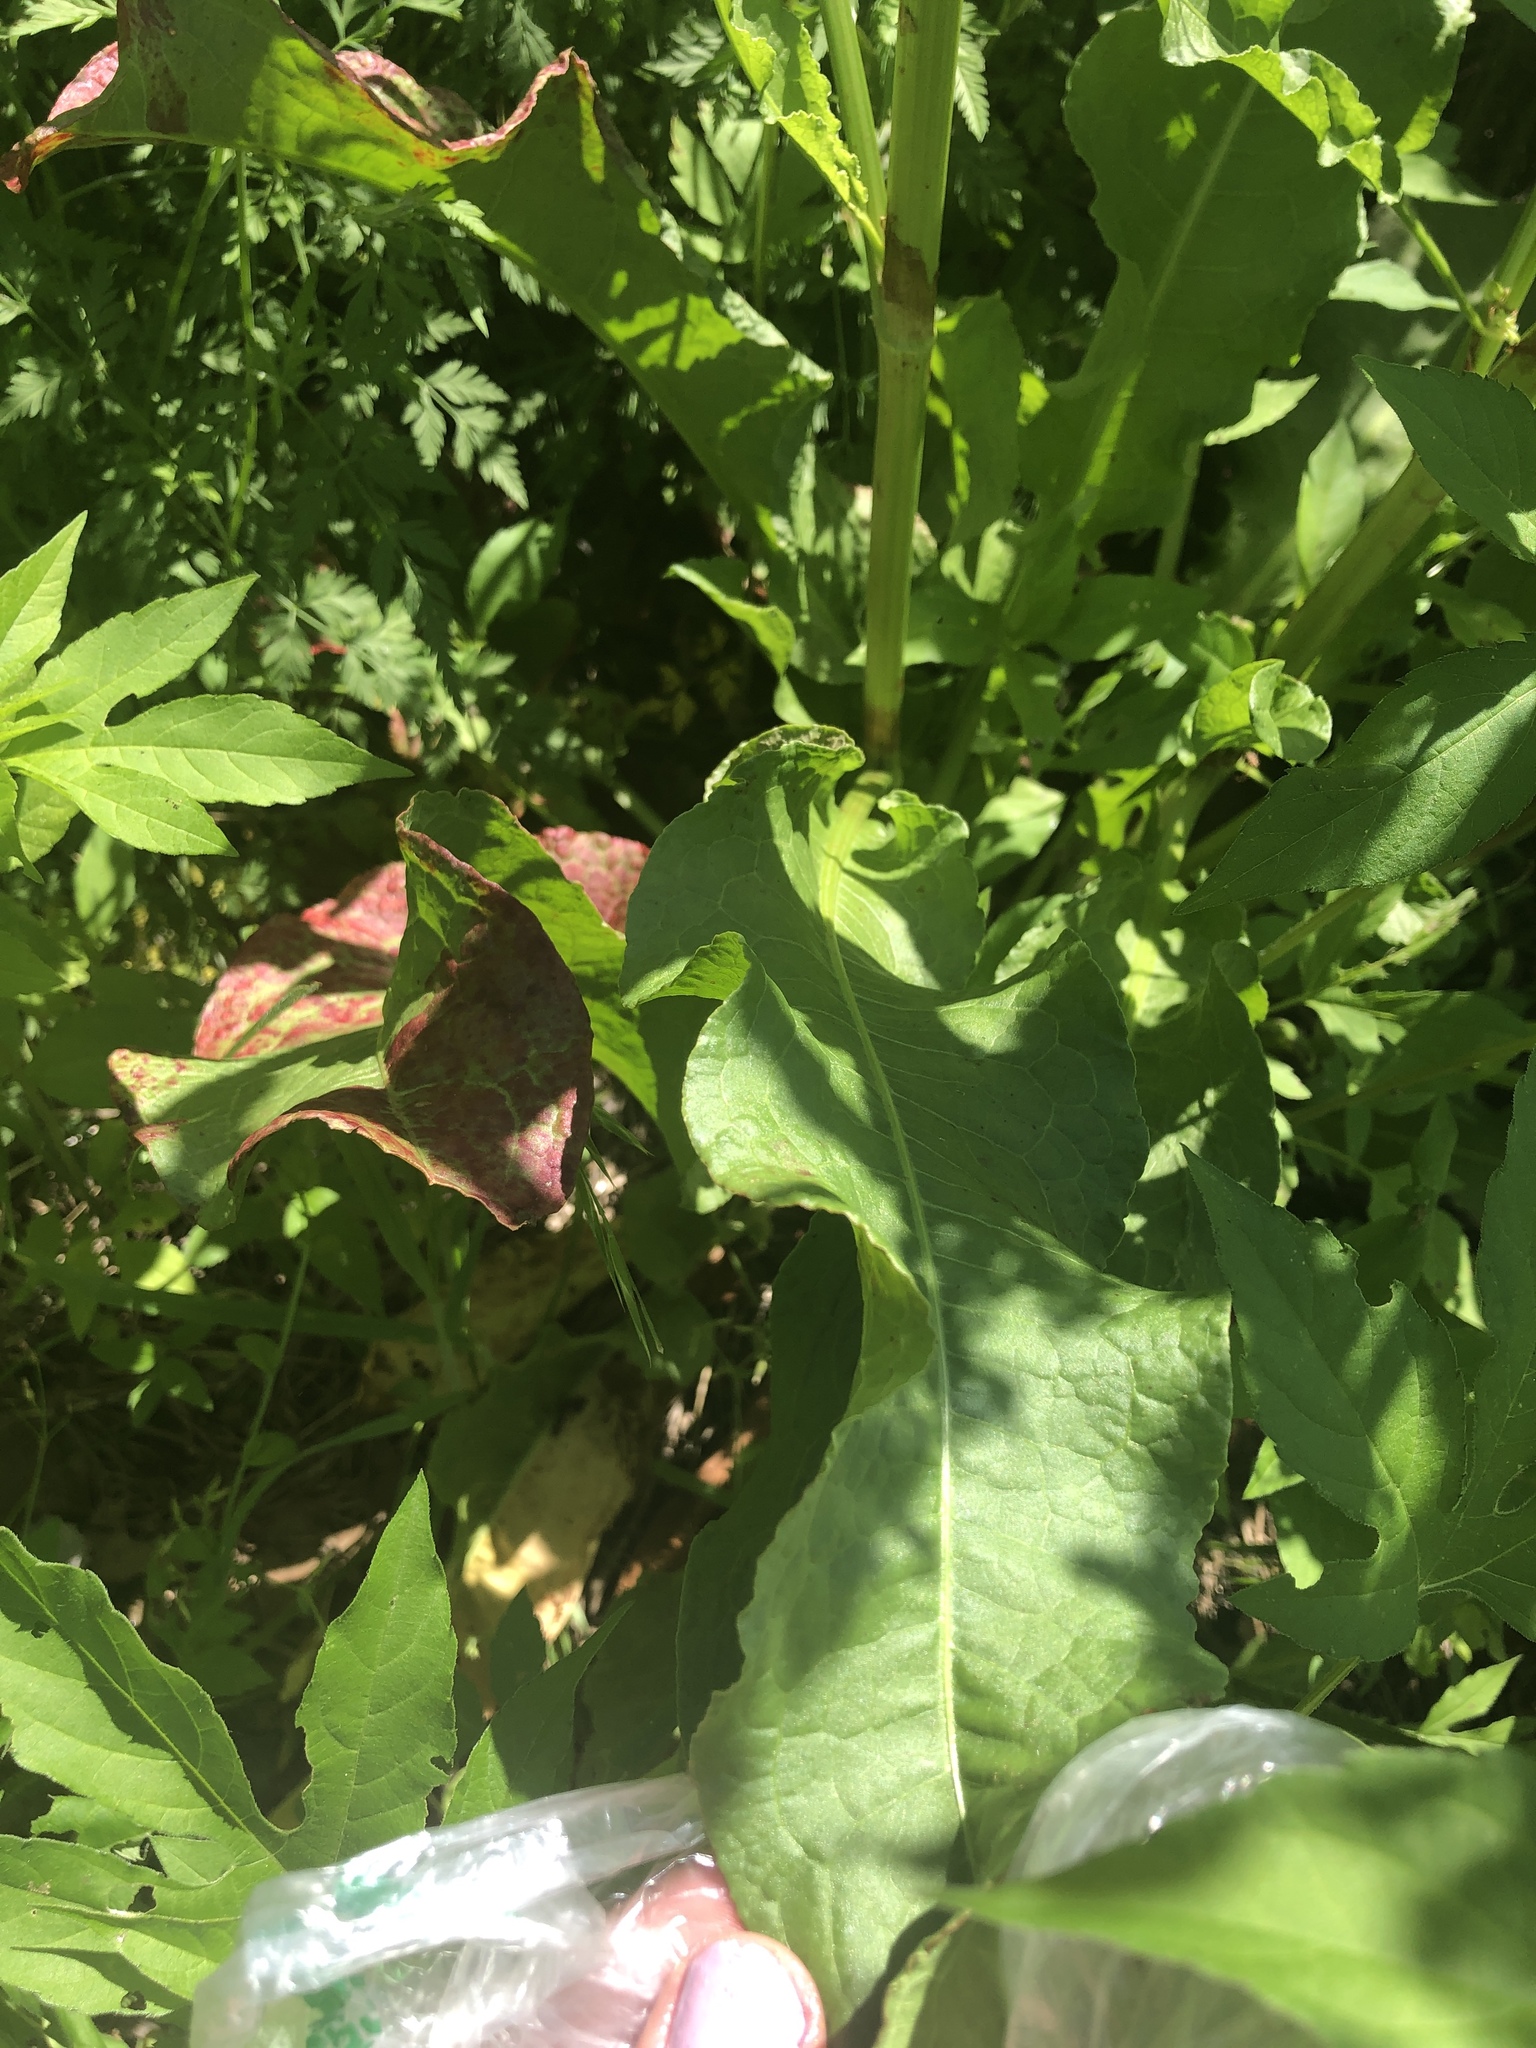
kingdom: Plantae
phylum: Tracheophyta
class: Magnoliopsida
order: Caryophyllales
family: Polygonaceae
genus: Rumex
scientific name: Rumex crispus
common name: Curled dock
